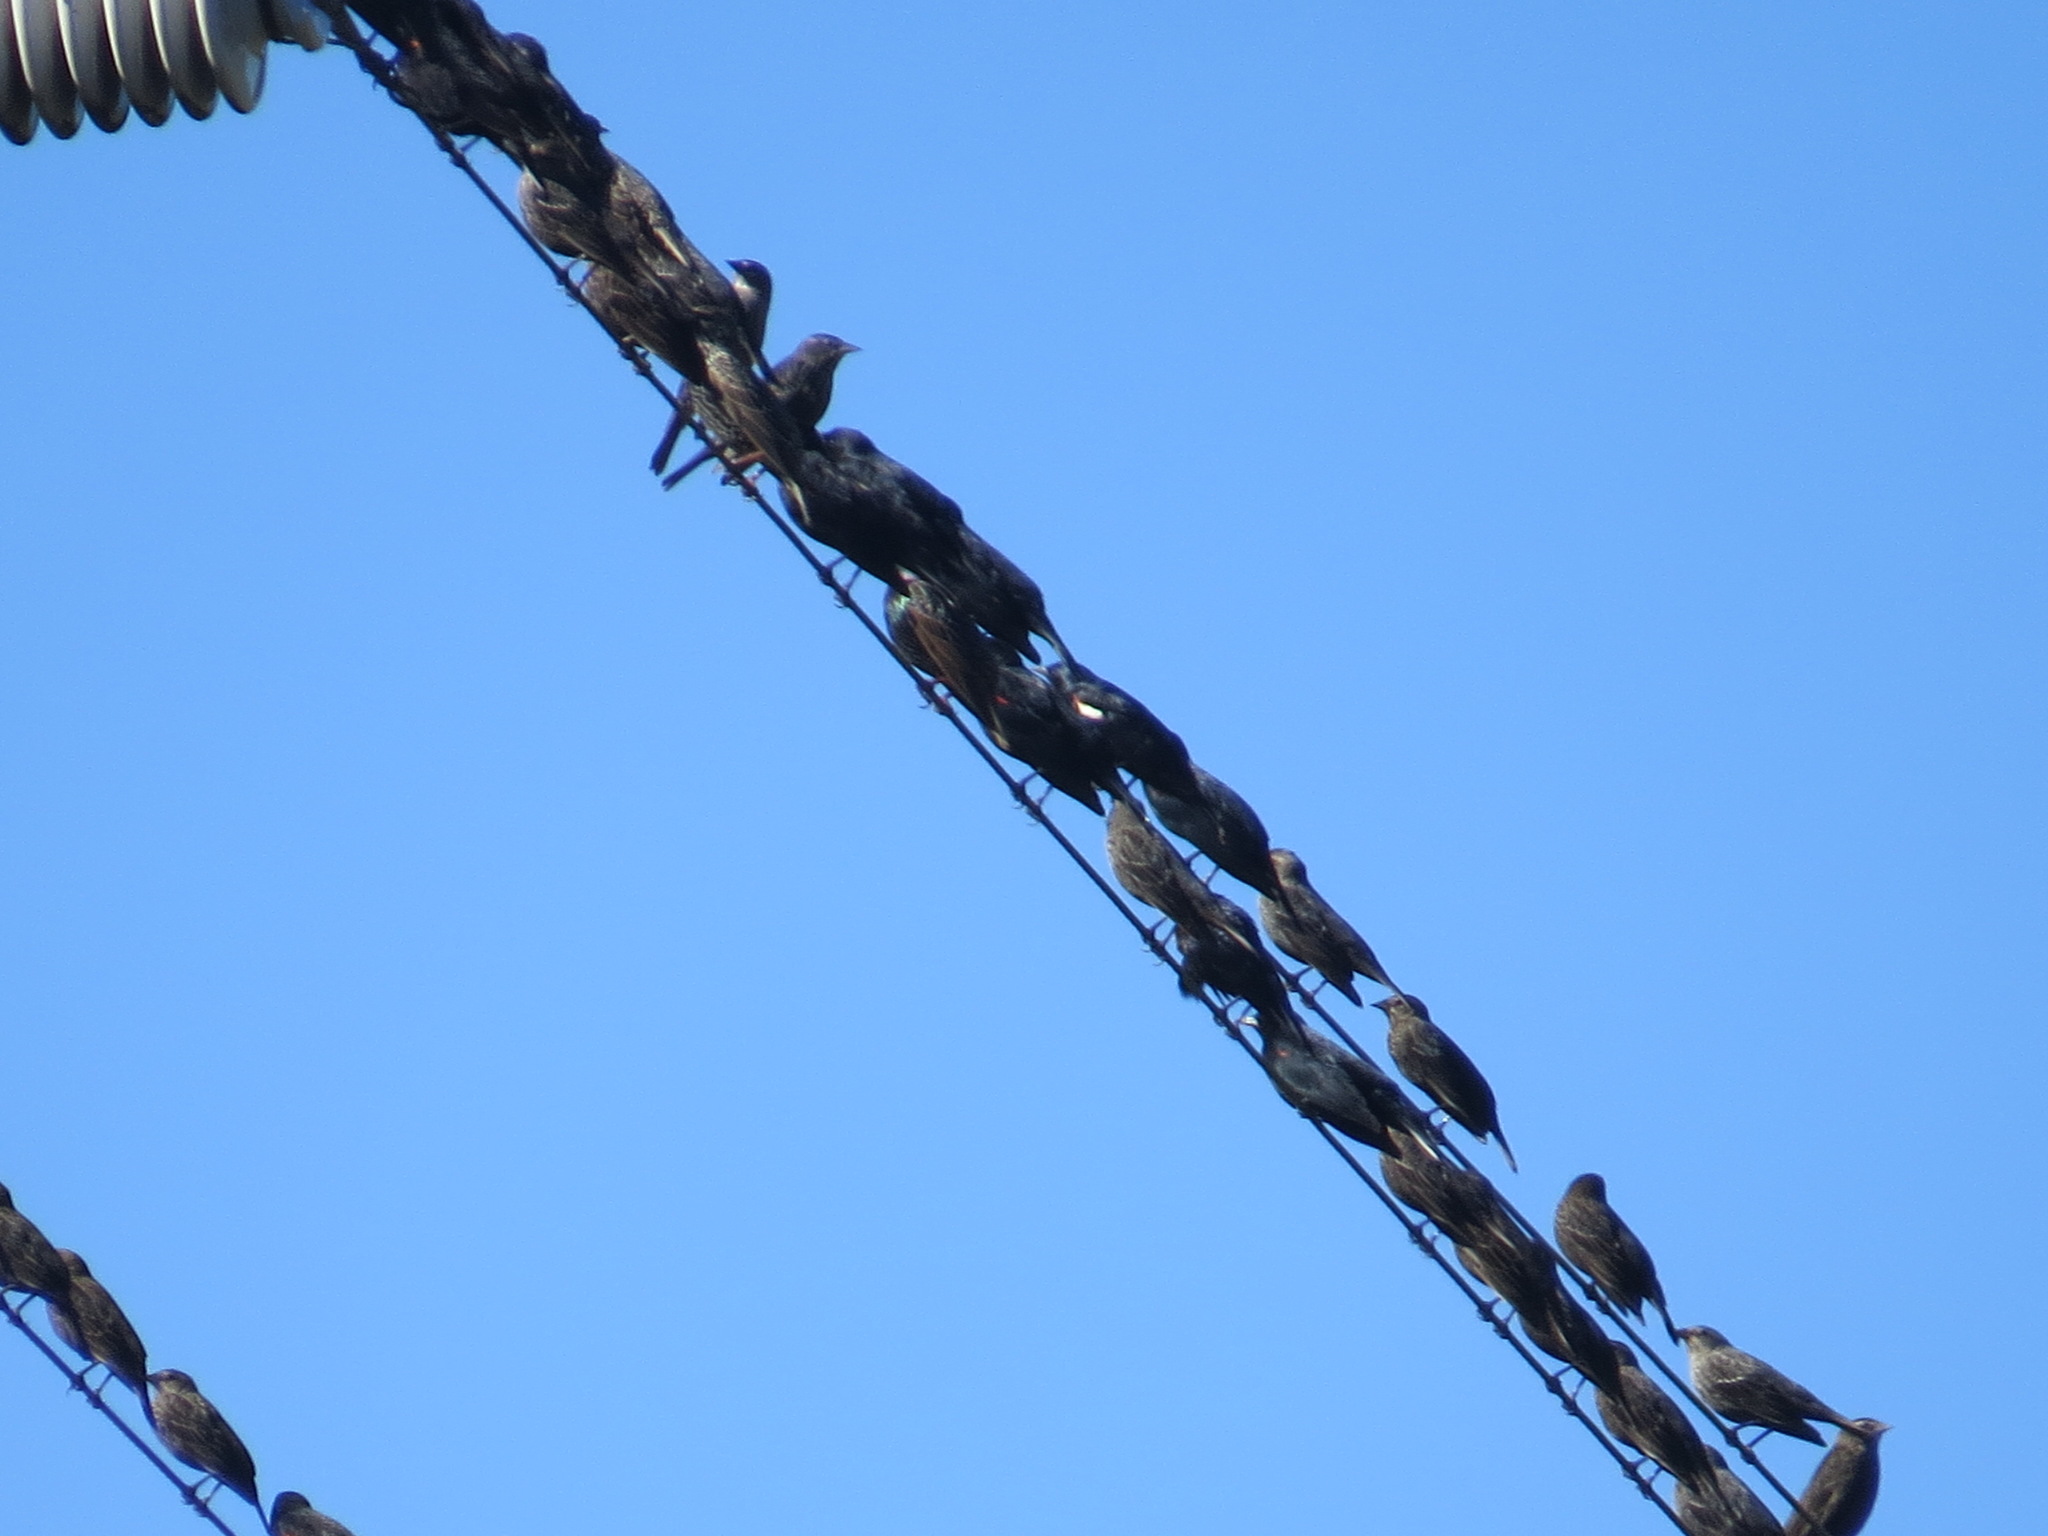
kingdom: Animalia
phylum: Chordata
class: Aves
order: Passeriformes
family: Icteridae
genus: Agelaius
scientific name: Agelaius tricolor
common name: Tricolored blackbird
